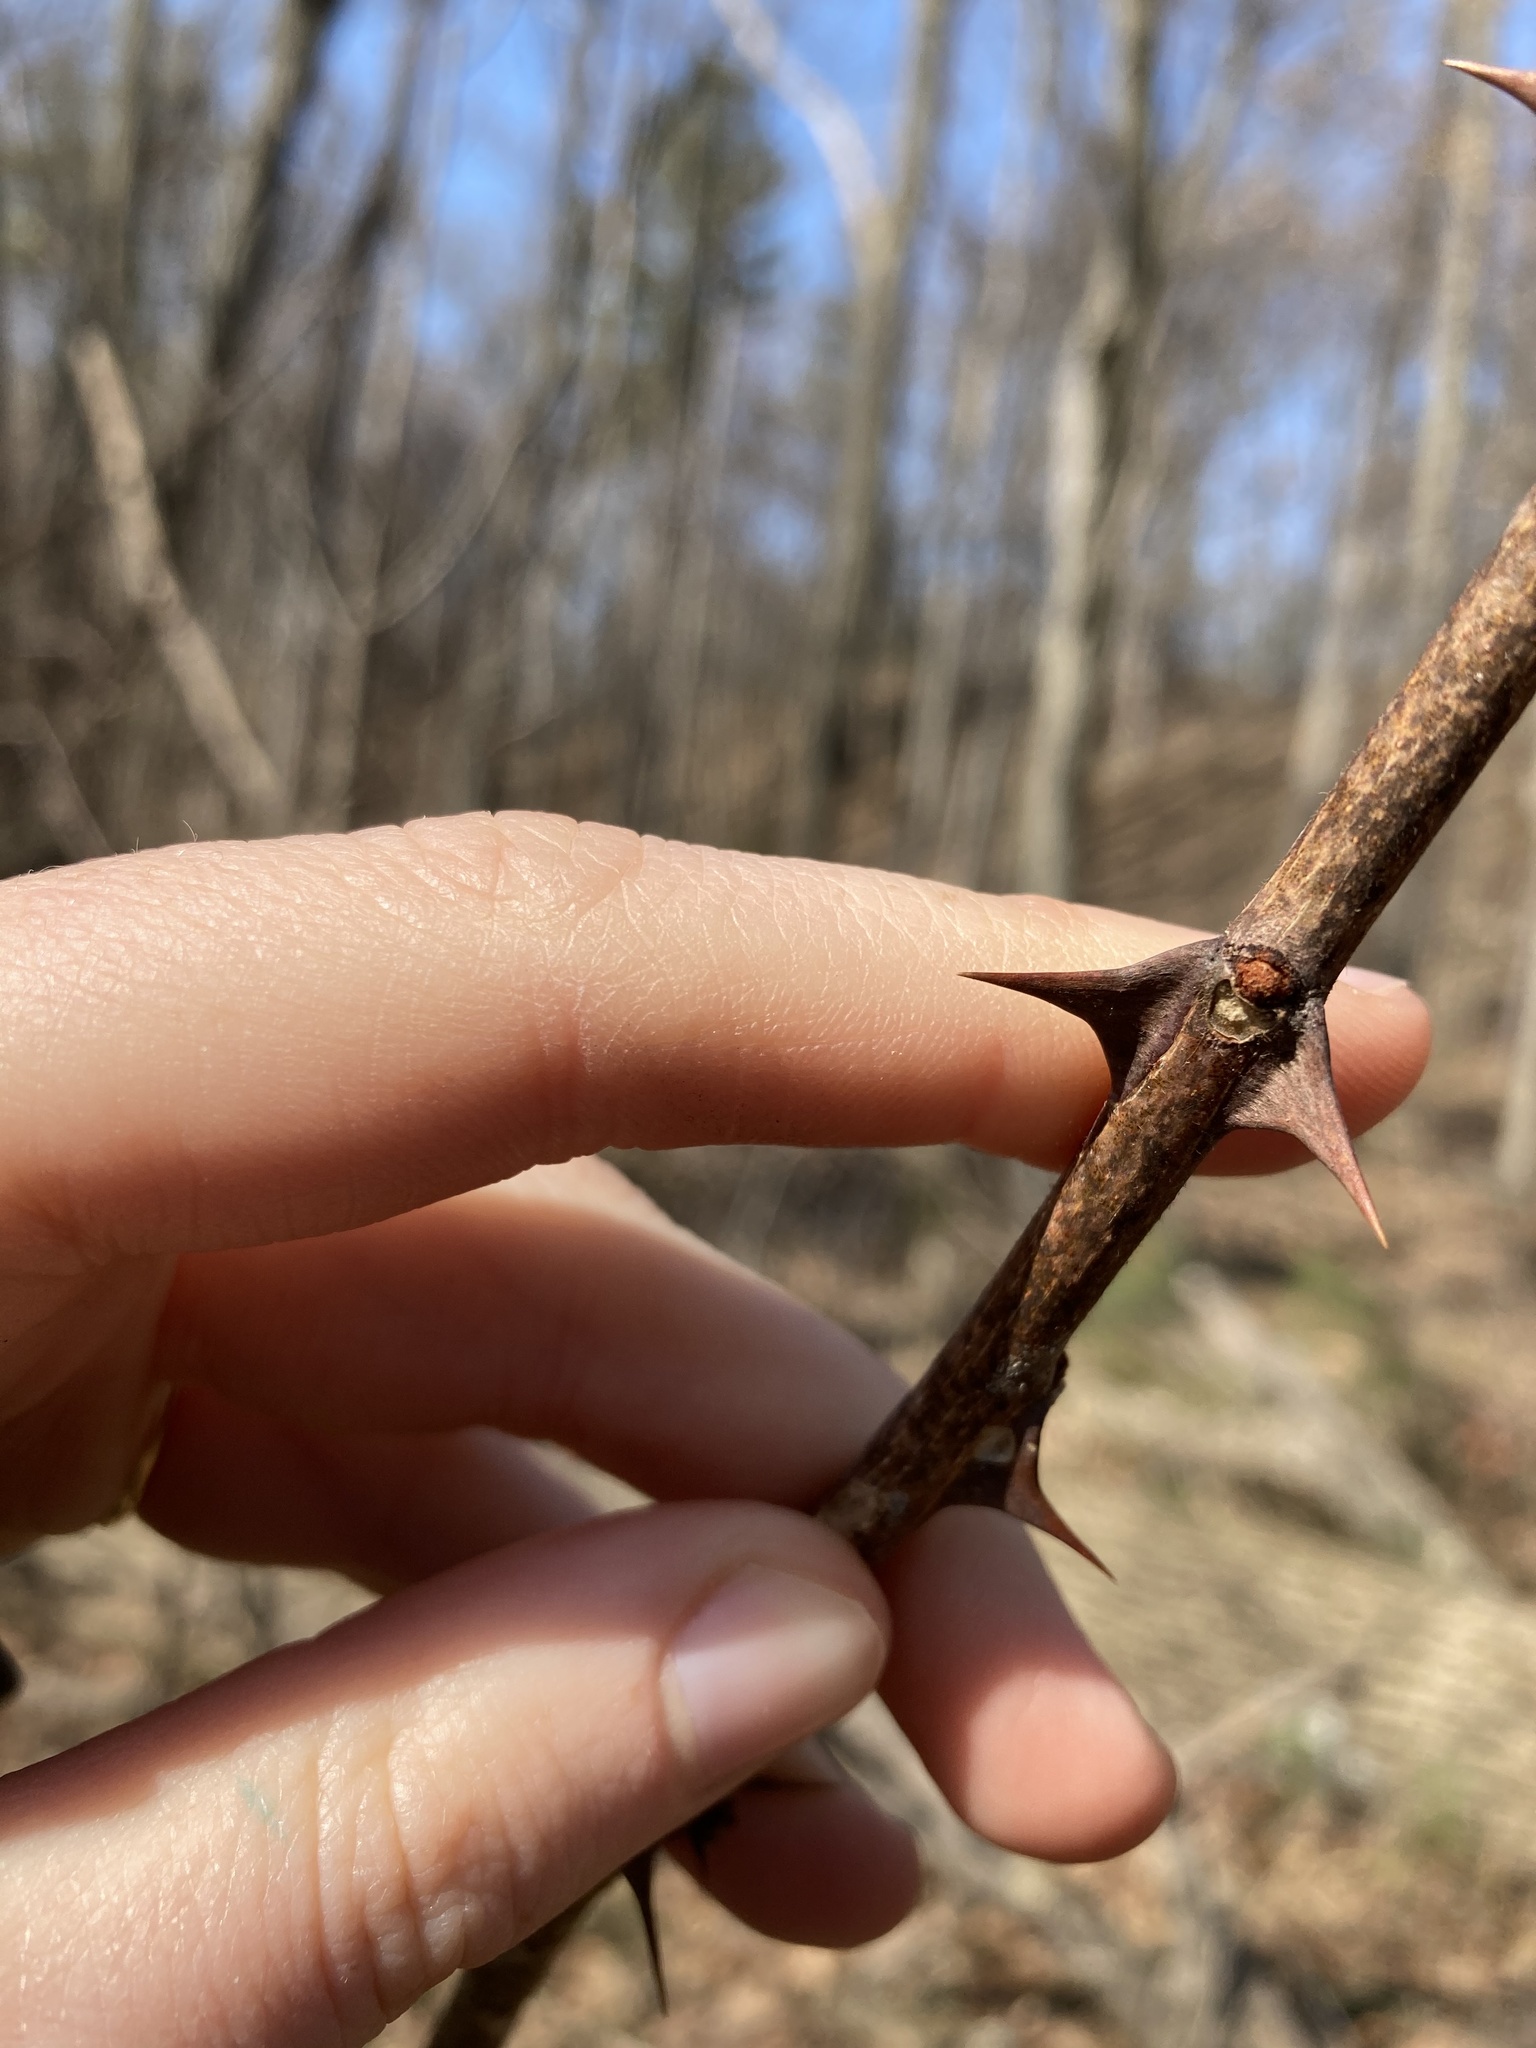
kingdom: Plantae
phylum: Tracheophyta
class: Magnoliopsida
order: Sapindales
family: Rutaceae
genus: Zanthoxylum
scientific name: Zanthoxylum americanum
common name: Northern prickly-ash
